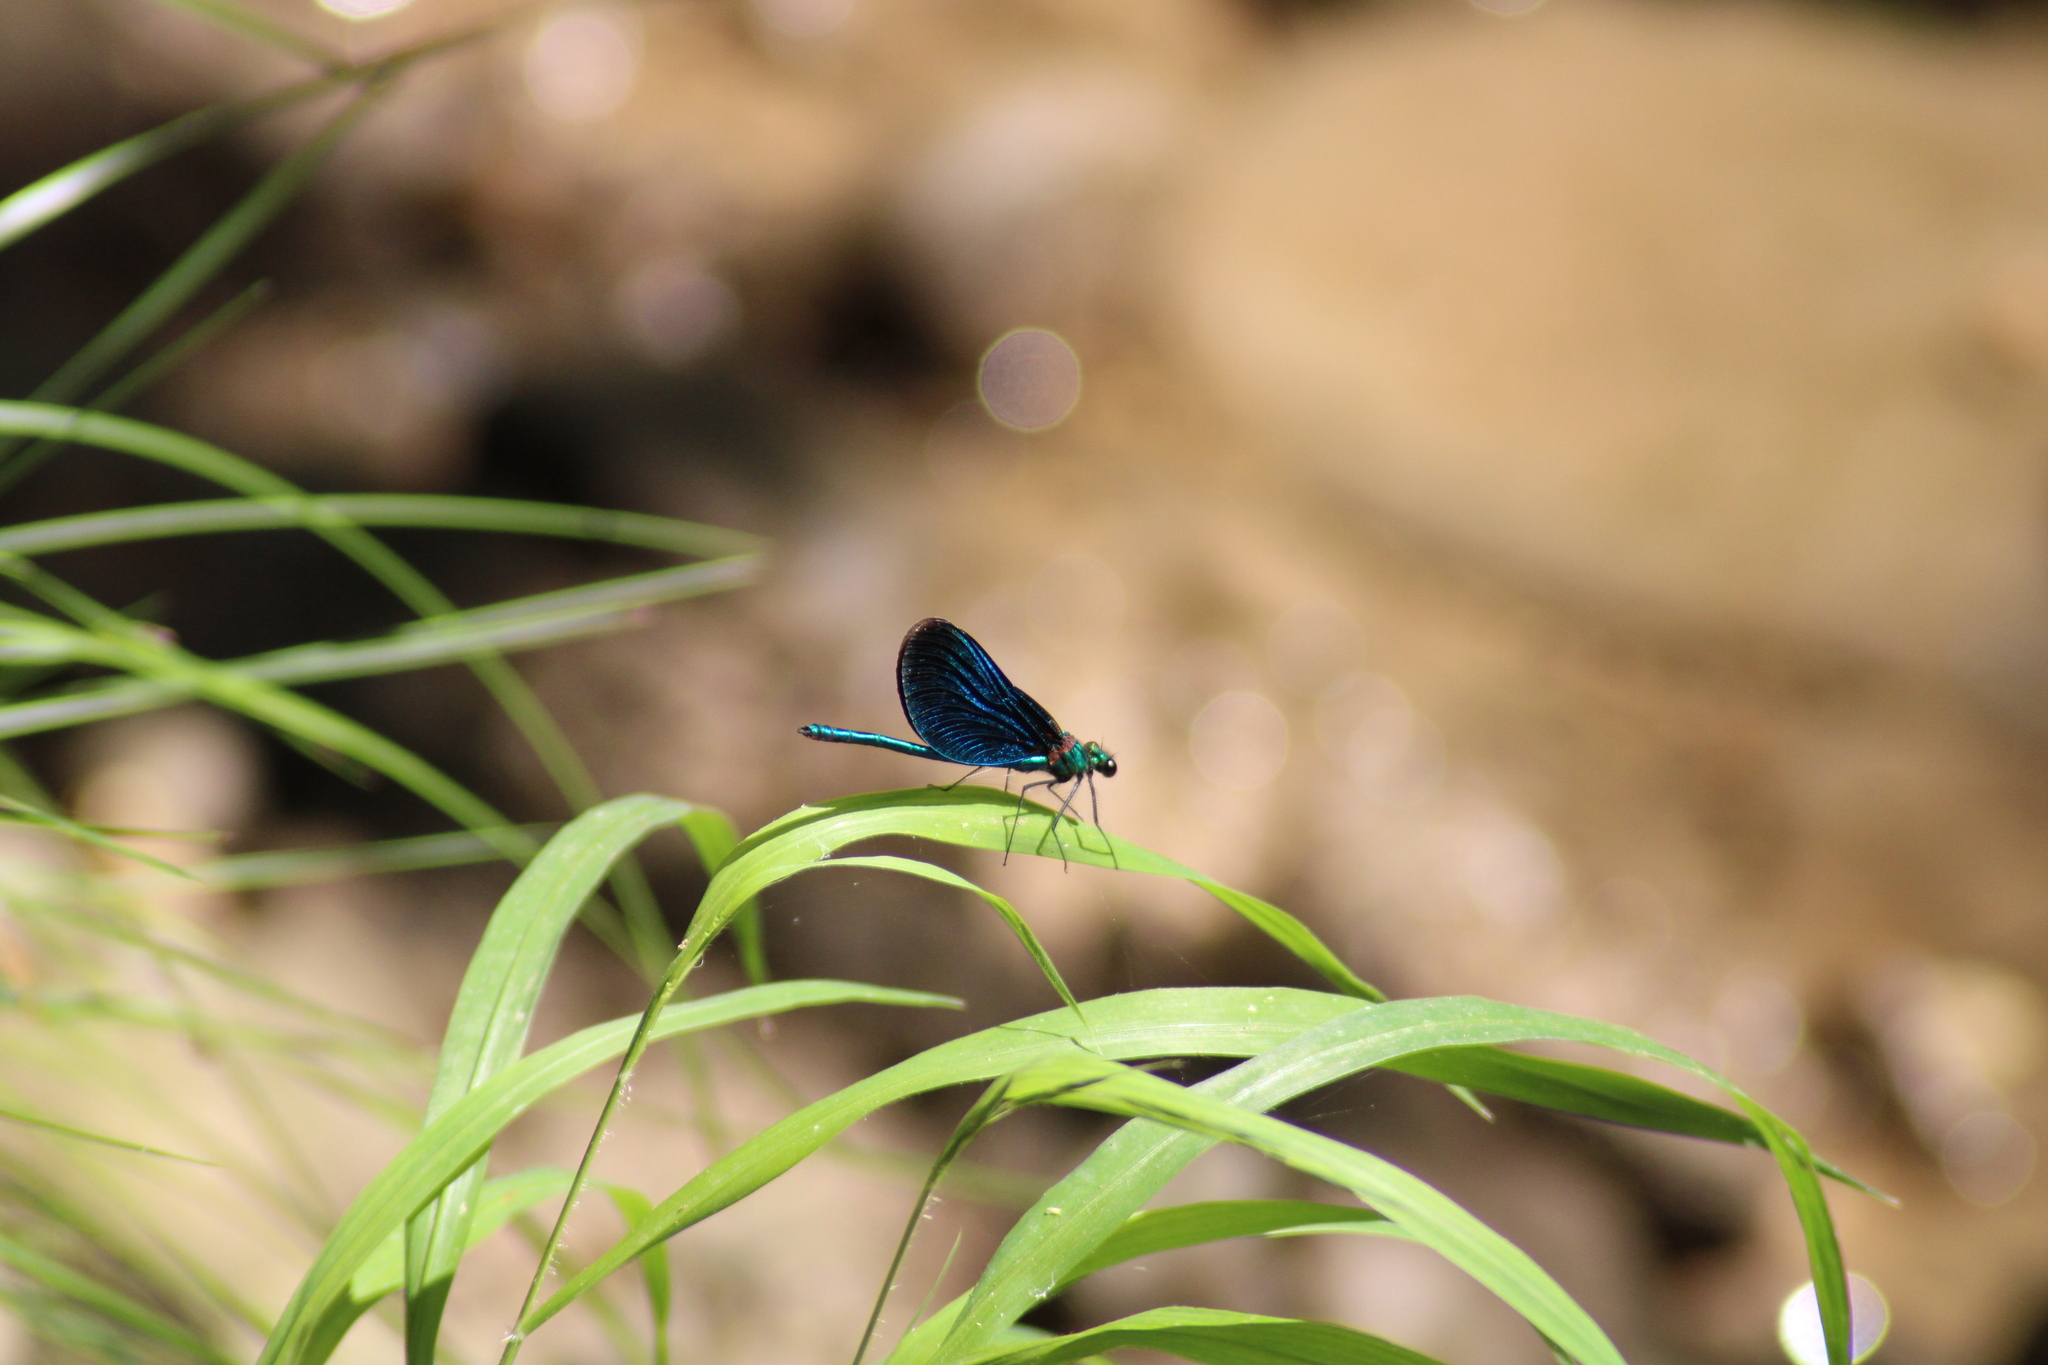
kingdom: Animalia
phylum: Arthropoda
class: Insecta
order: Odonata
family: Calopterygidae
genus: Calopteryx
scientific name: Calopteryx virgo
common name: Beautiful demoiselle
